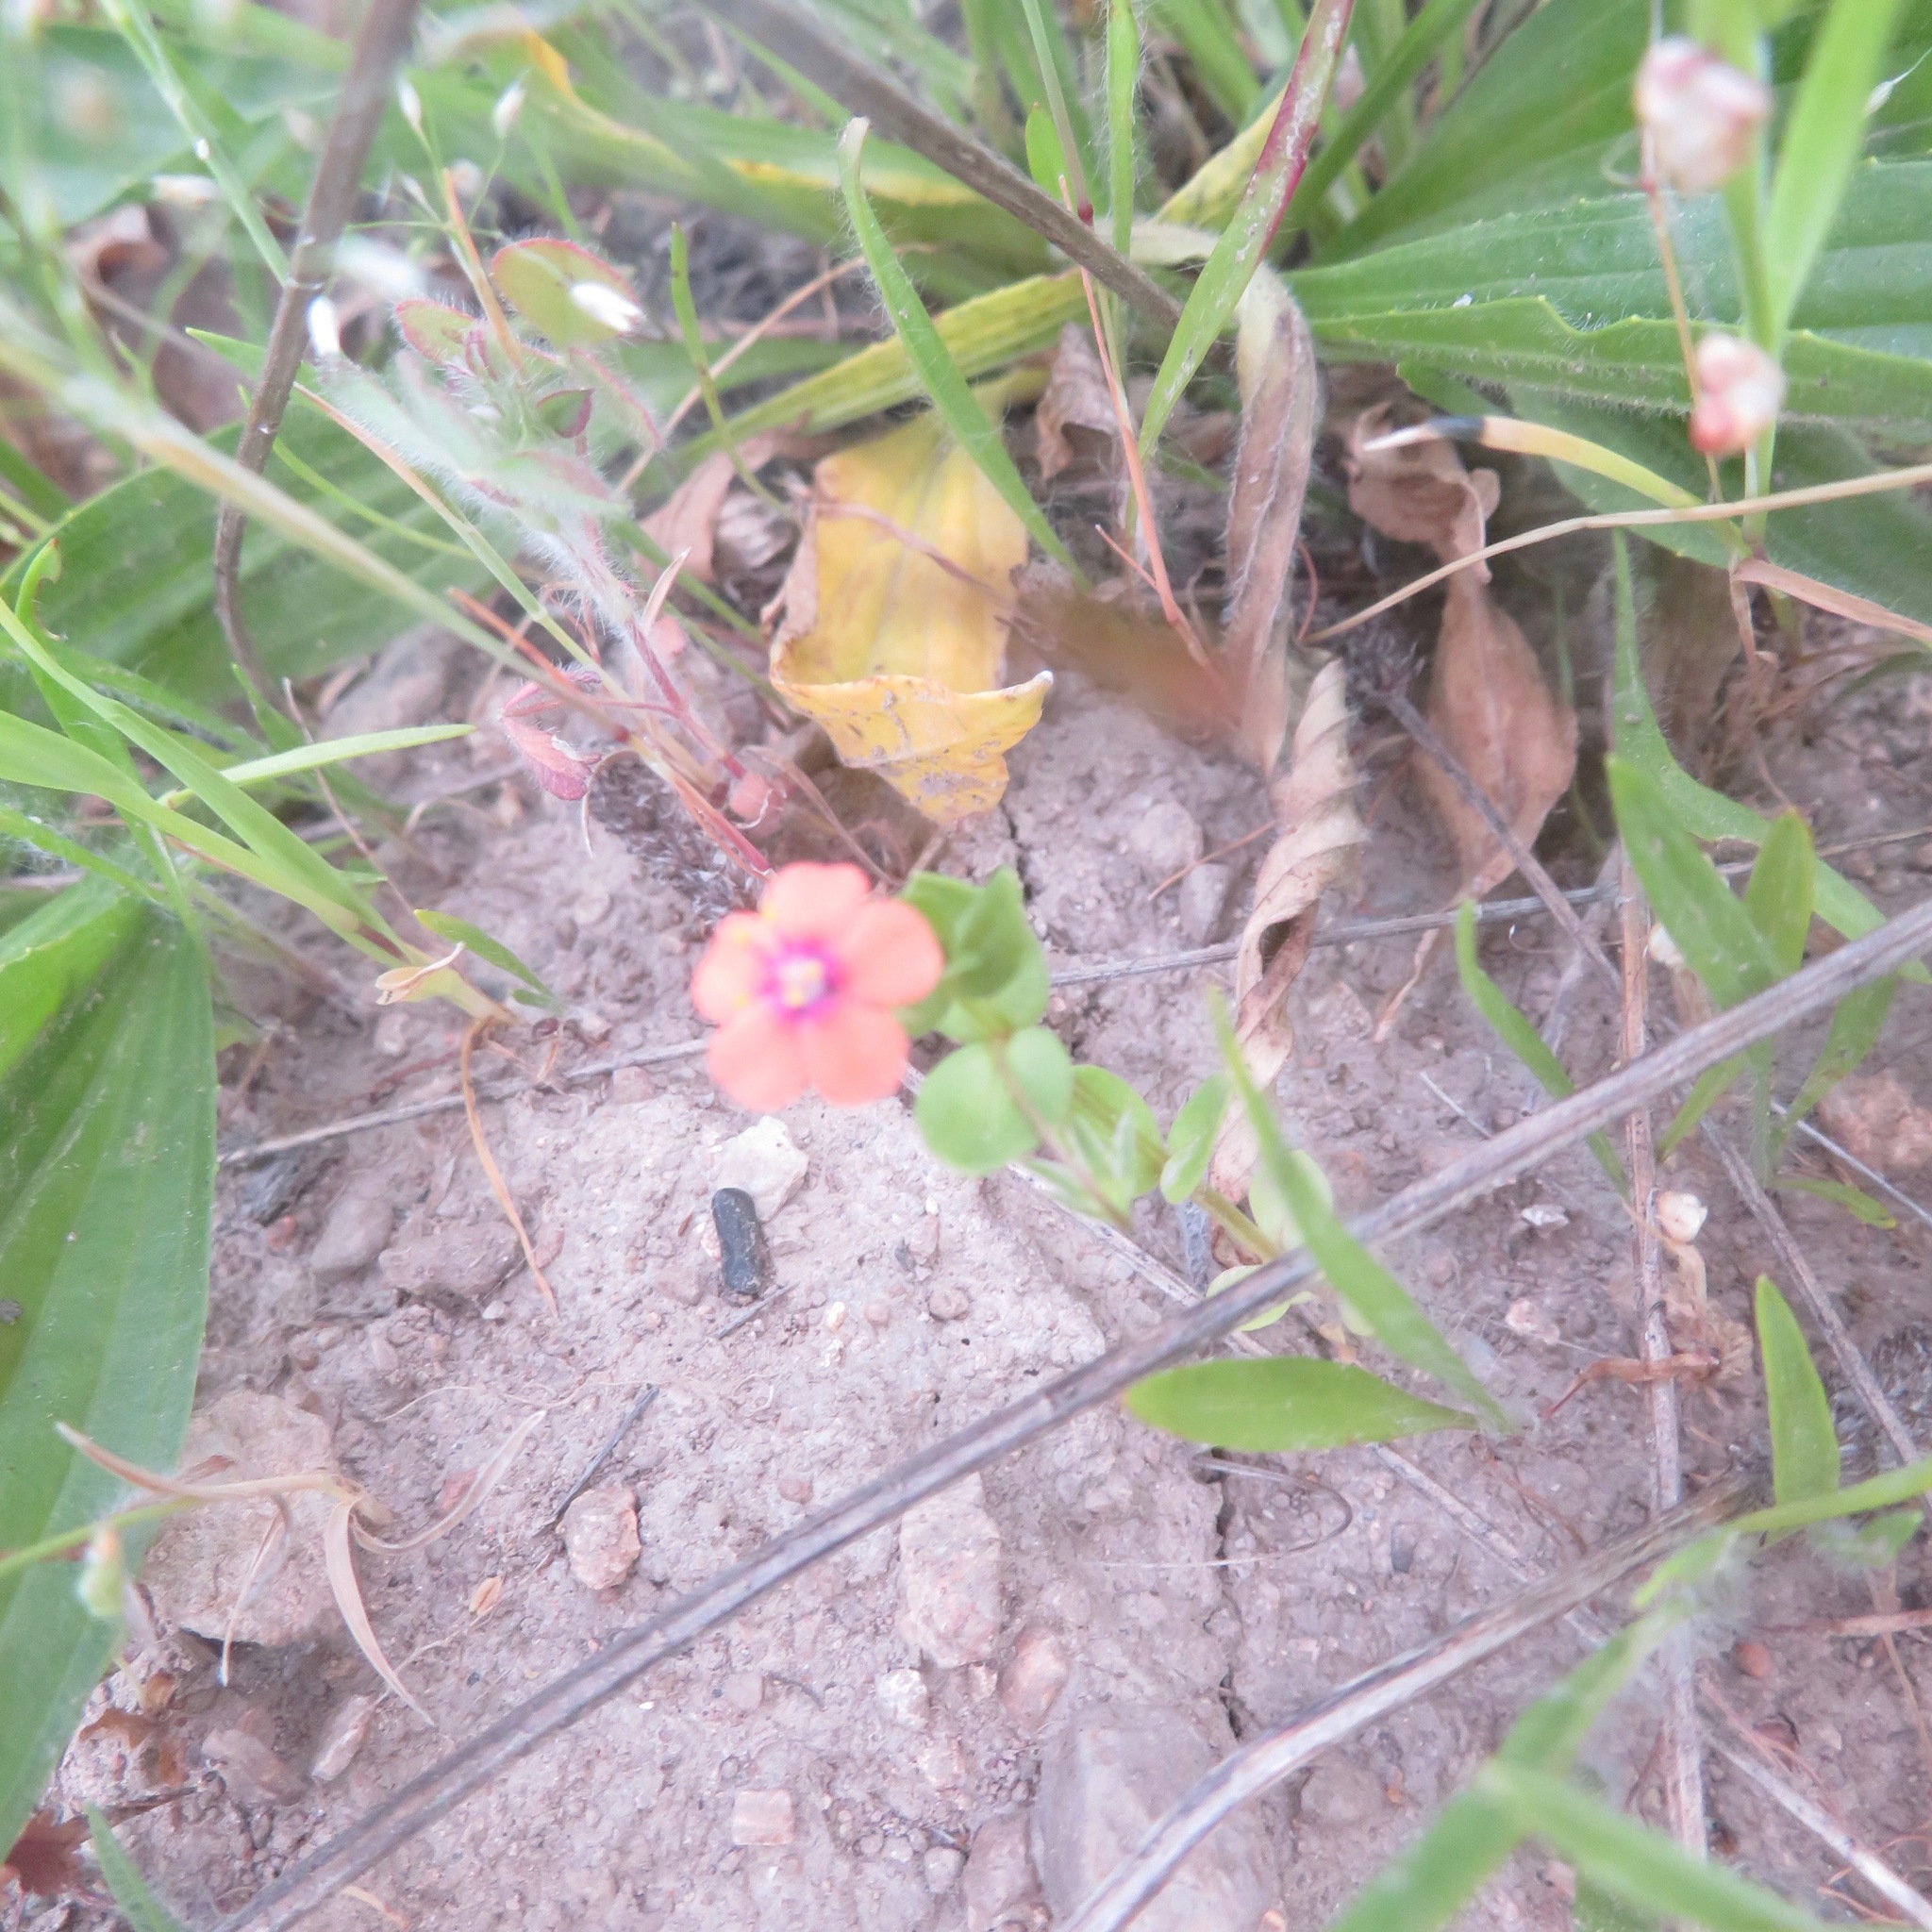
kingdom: Plantae
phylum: Tracheophyta
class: Magnoliopsida
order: Ericales
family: Primulaceae
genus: Lysimachia
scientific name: Lysimachia arvensis
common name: Scarlet pimpernel
